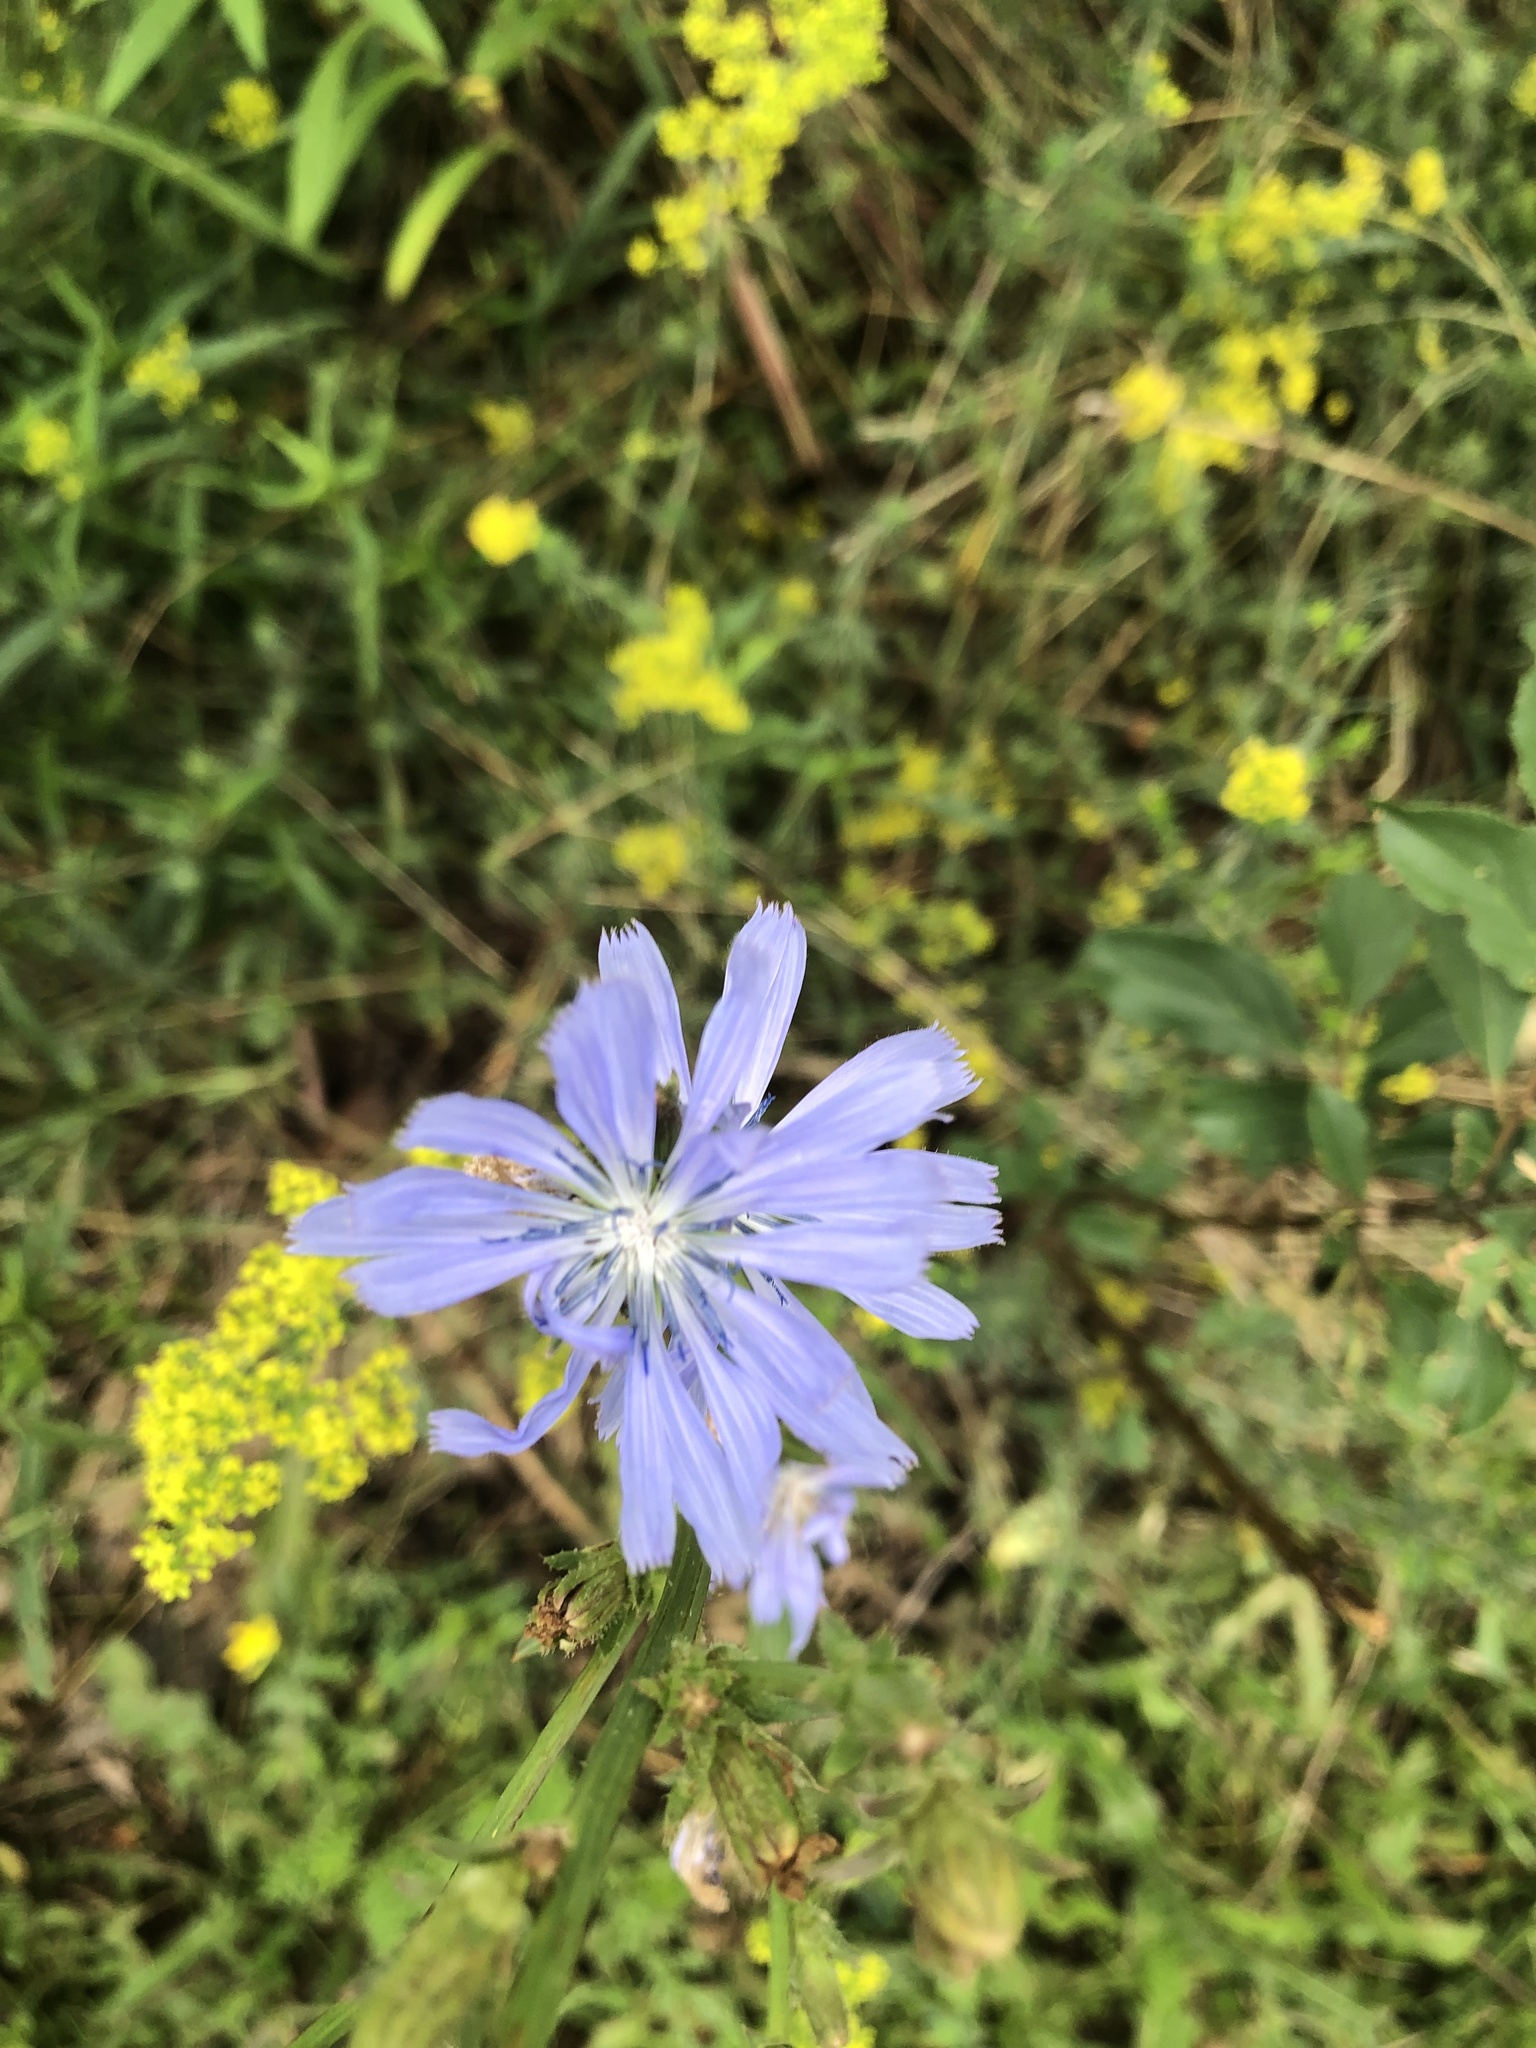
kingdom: Plantae
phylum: Tracheophyta
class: Magnoliopsida
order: Asterales
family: Asteraceae
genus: Cichorium
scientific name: Cichorium intybus
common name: Chicory
